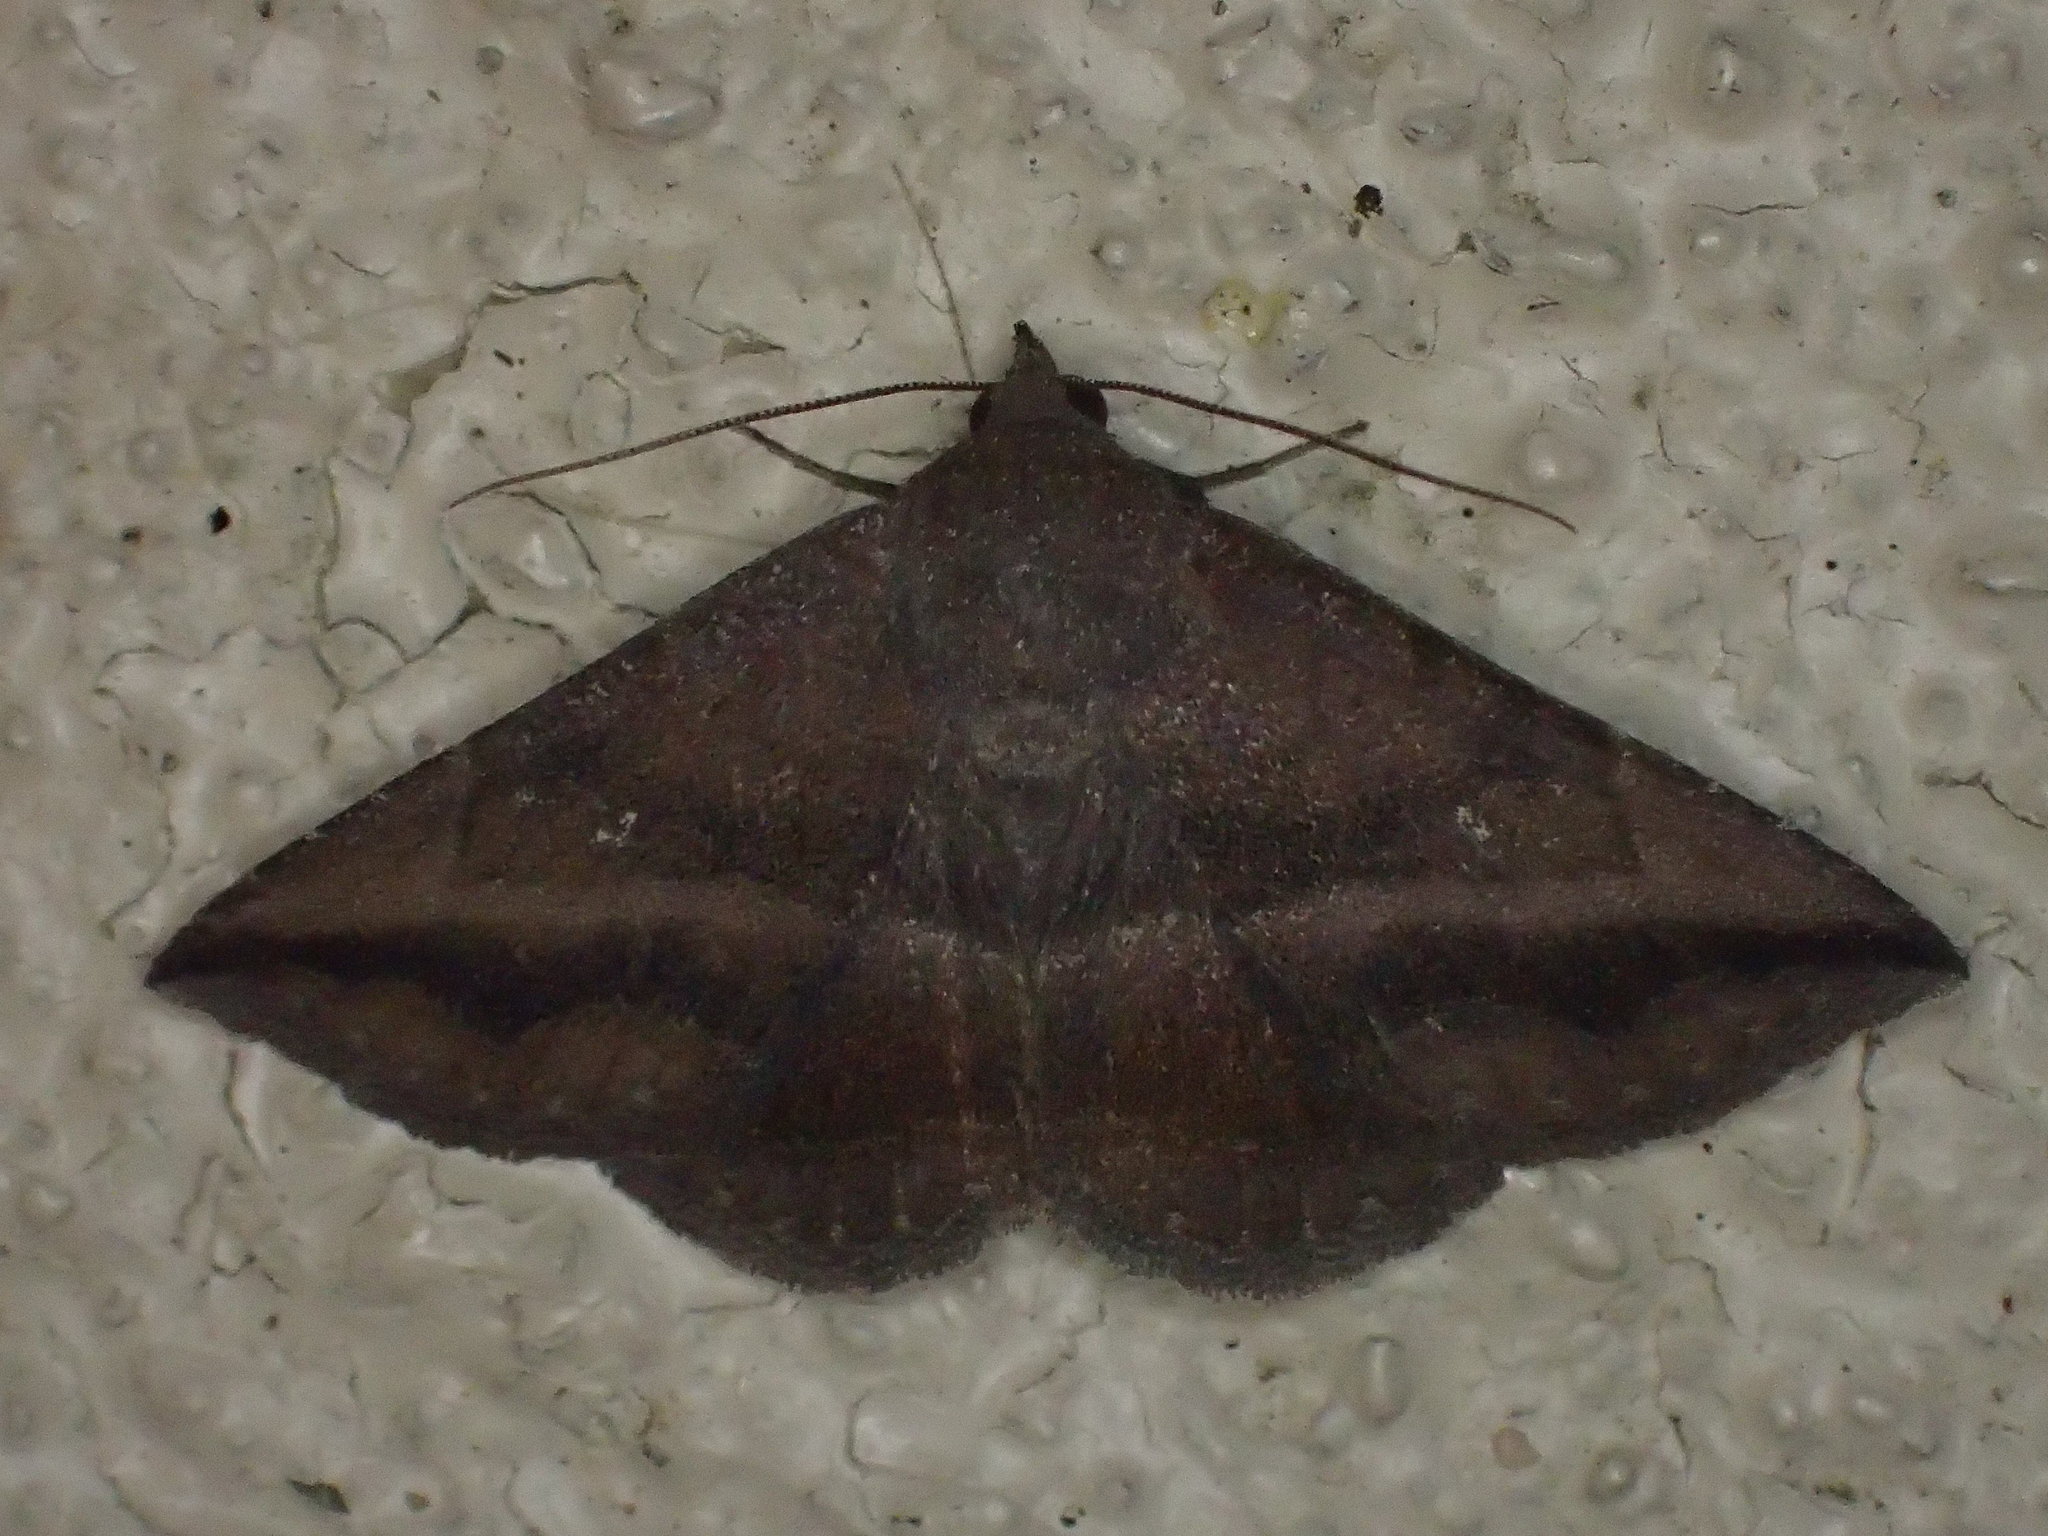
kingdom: Animalia
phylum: Arthropoda
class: Insecta
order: Lepidoptera
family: Erebidae
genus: Lesmone
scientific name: Lesmone detrahens
